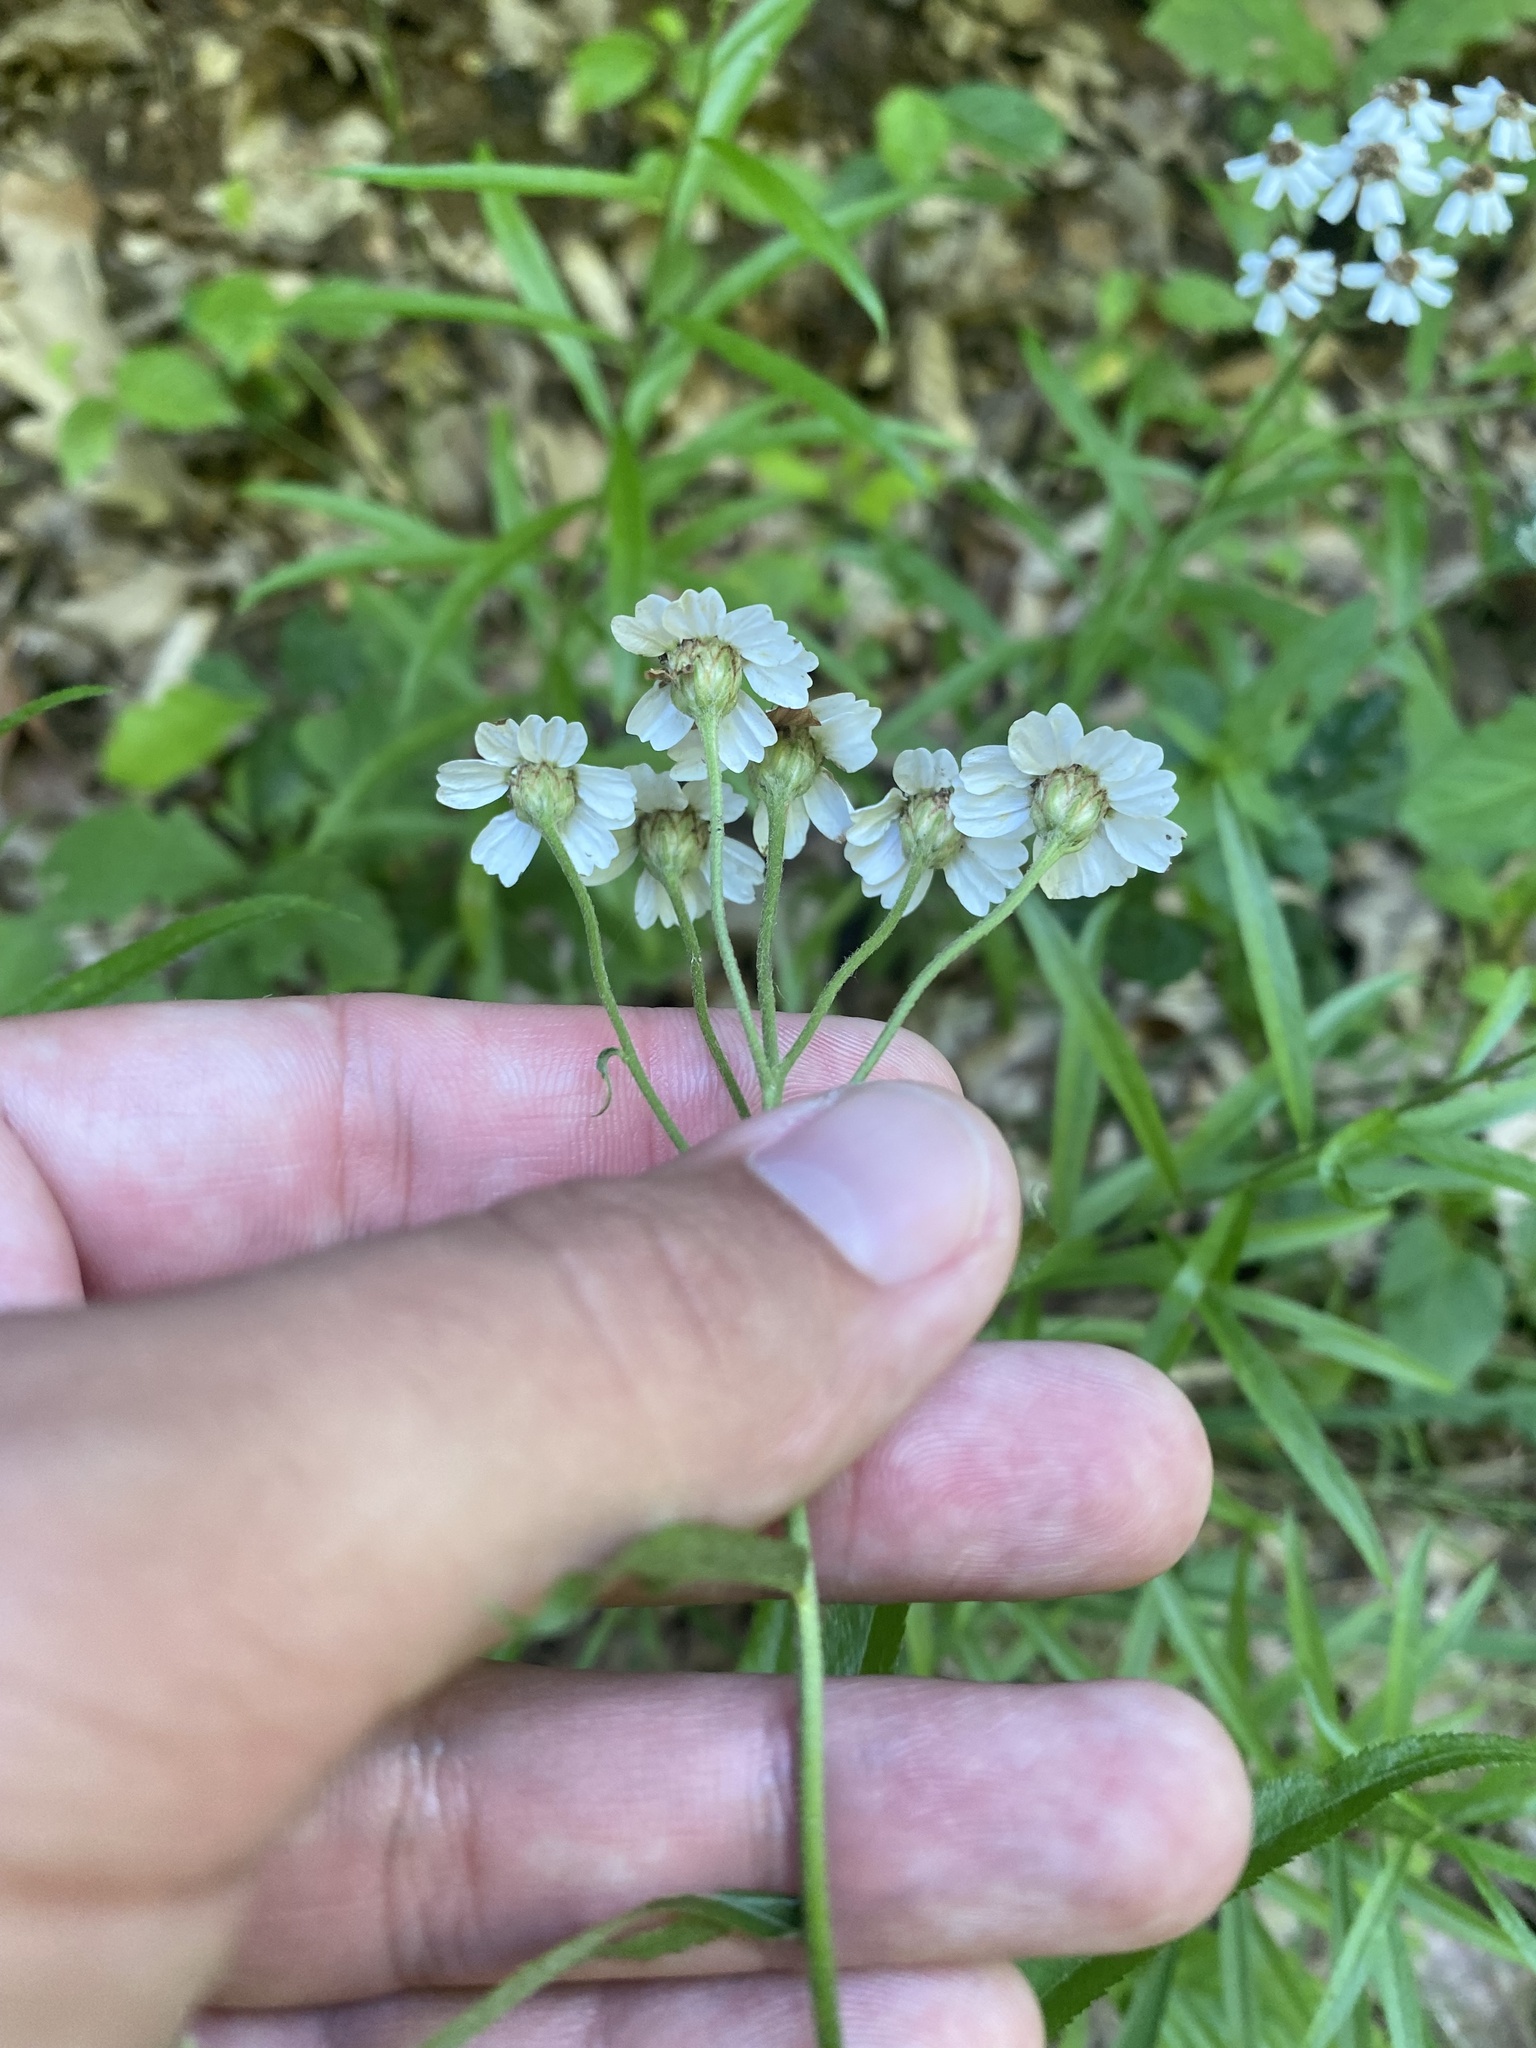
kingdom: Plantae
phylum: Tracheophyta
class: Magnoliopsida
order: Asterales
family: Asteraceae
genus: Achillea
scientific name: Achillea biserrata
